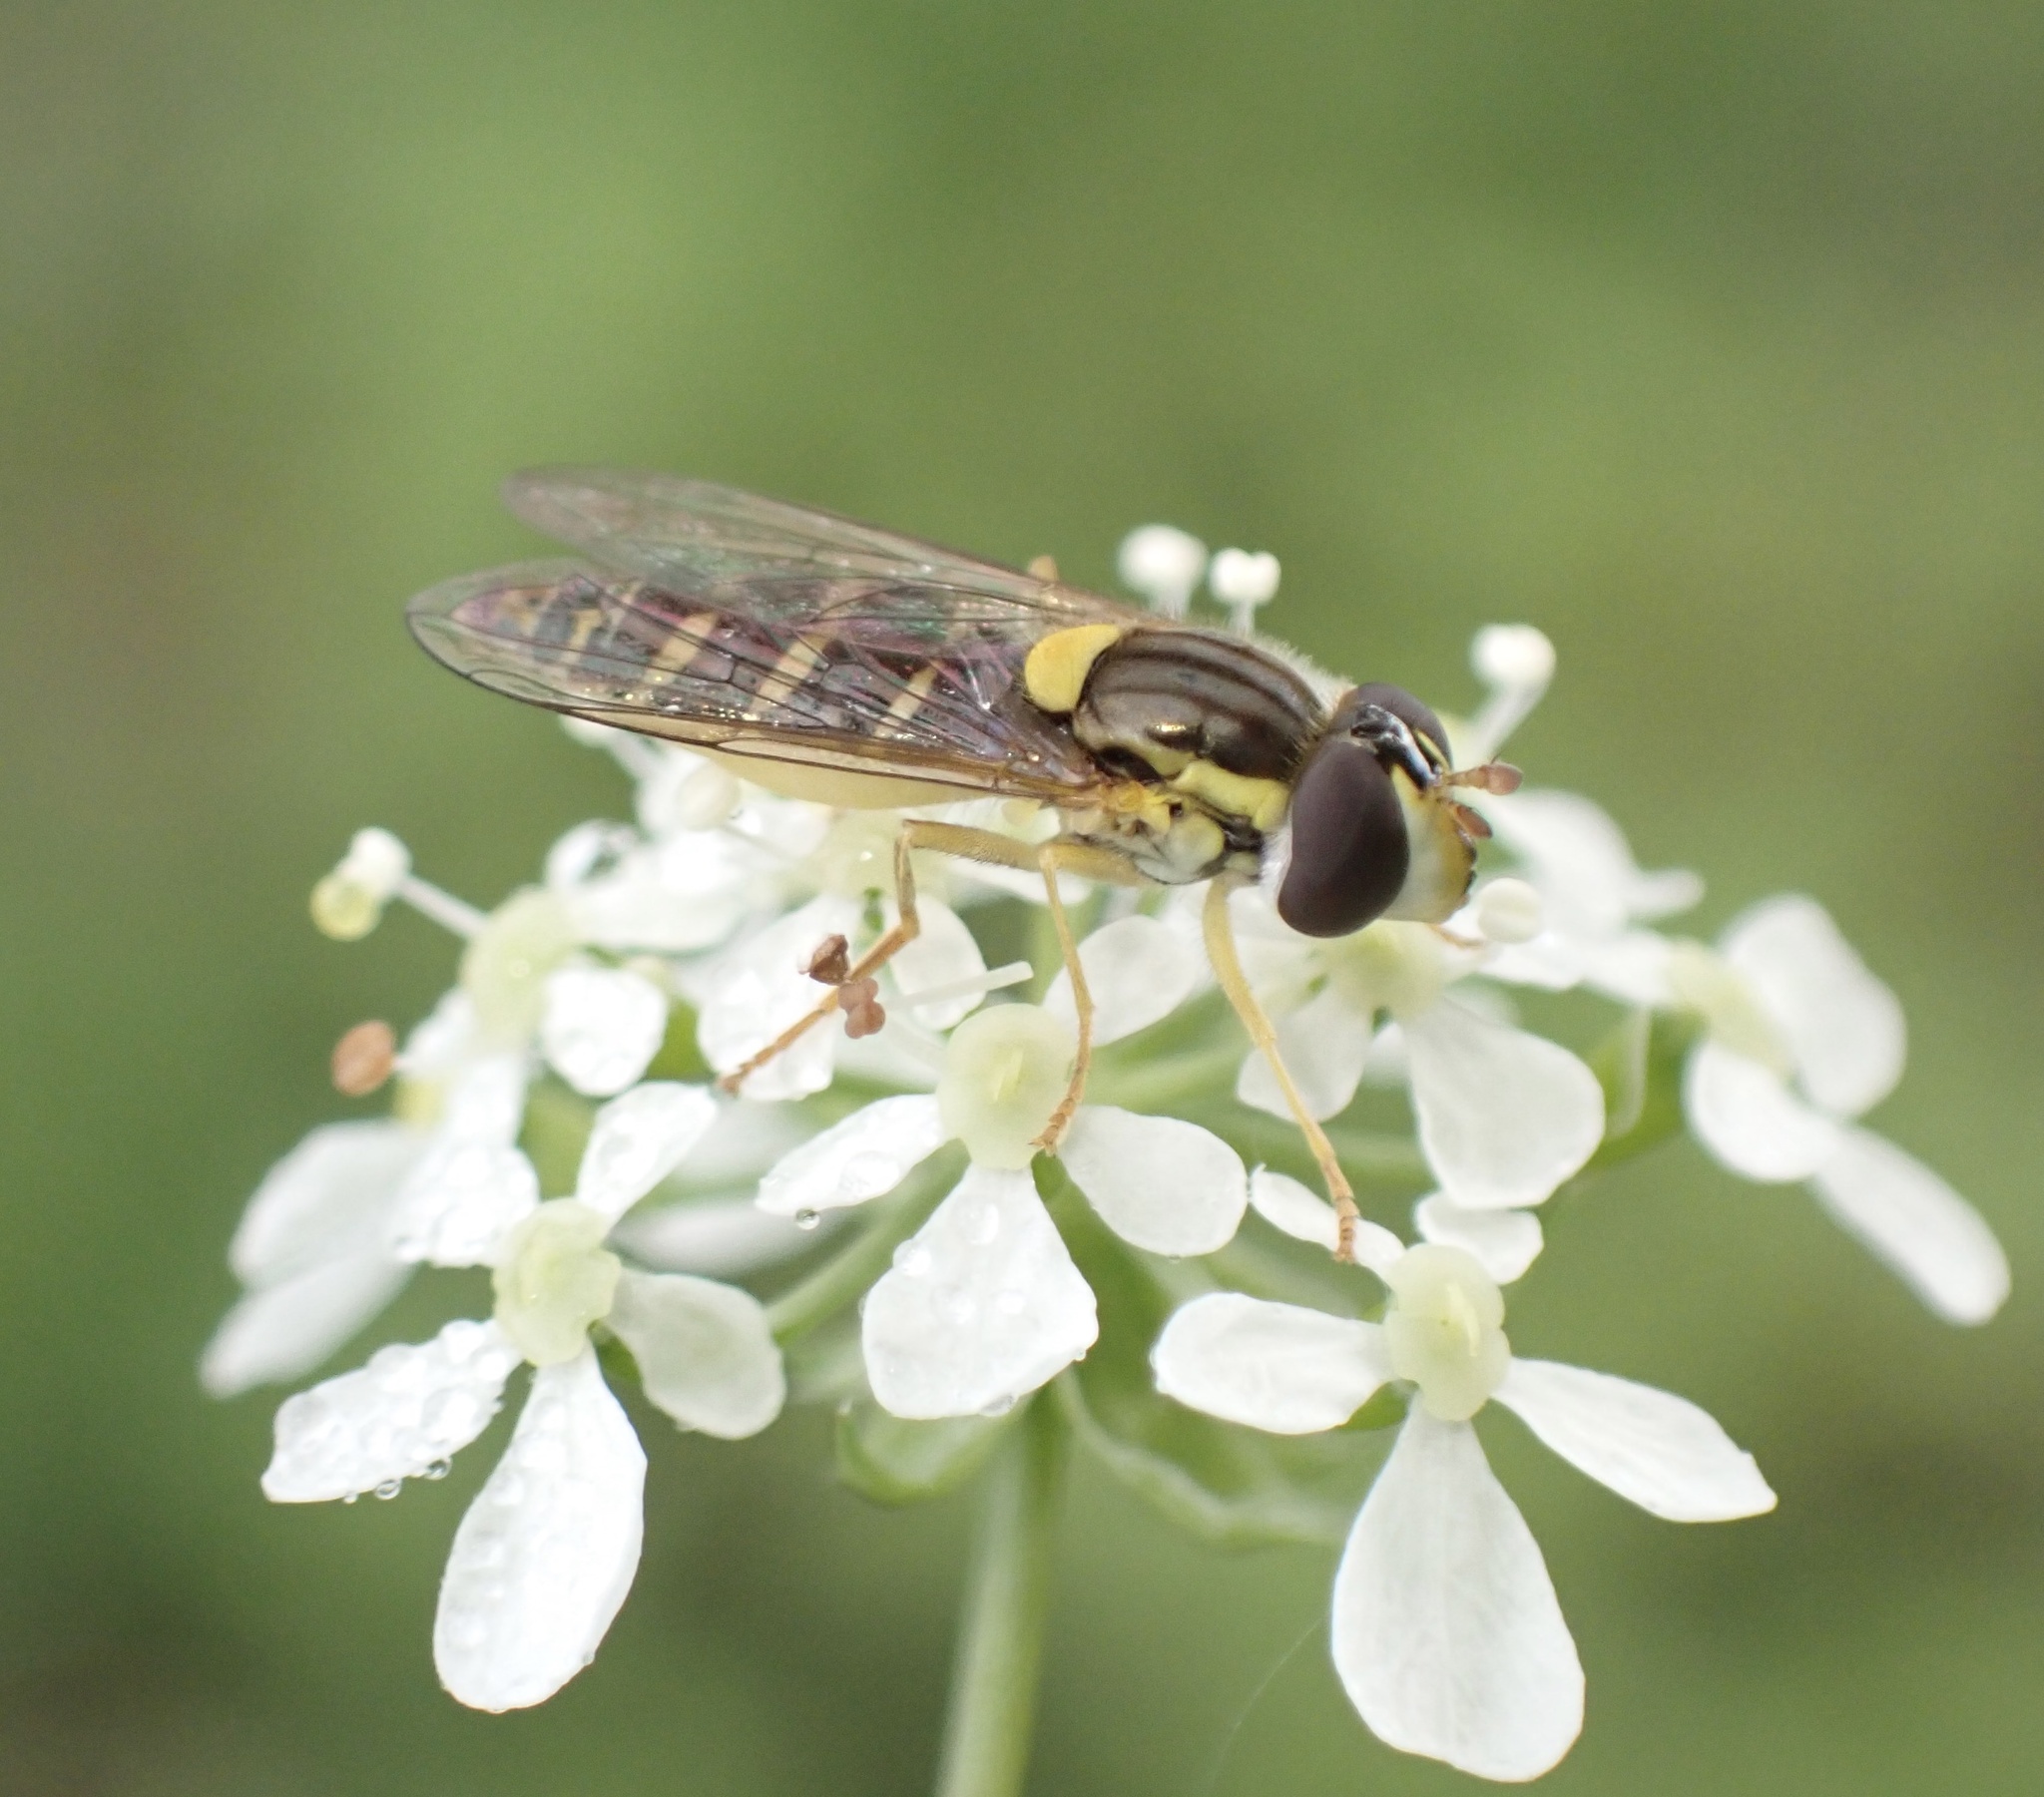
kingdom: Animalia
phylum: Arthropoda
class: Insecta
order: Diptera
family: Syrphidae
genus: Sphaerophoria
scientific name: Sphaerophoria
